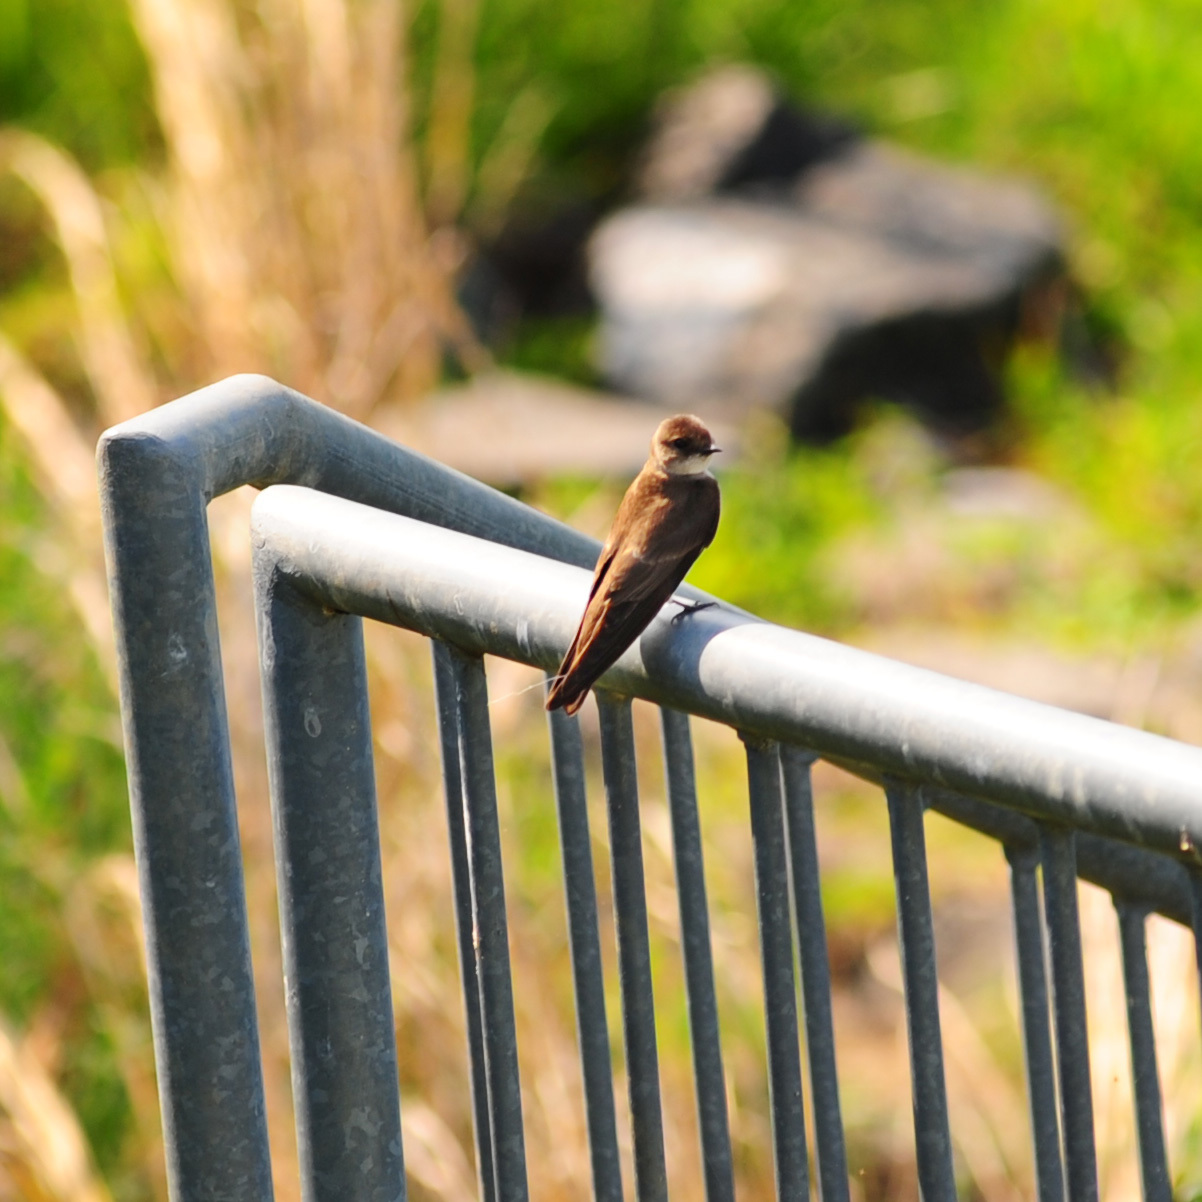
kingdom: Animalia
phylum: Chordata
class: Aves
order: Passeriformes
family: Hirundinidae
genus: Stelgidopteryx
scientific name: Stelgidopteryx serripennis
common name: Northern rough-winged swallow
